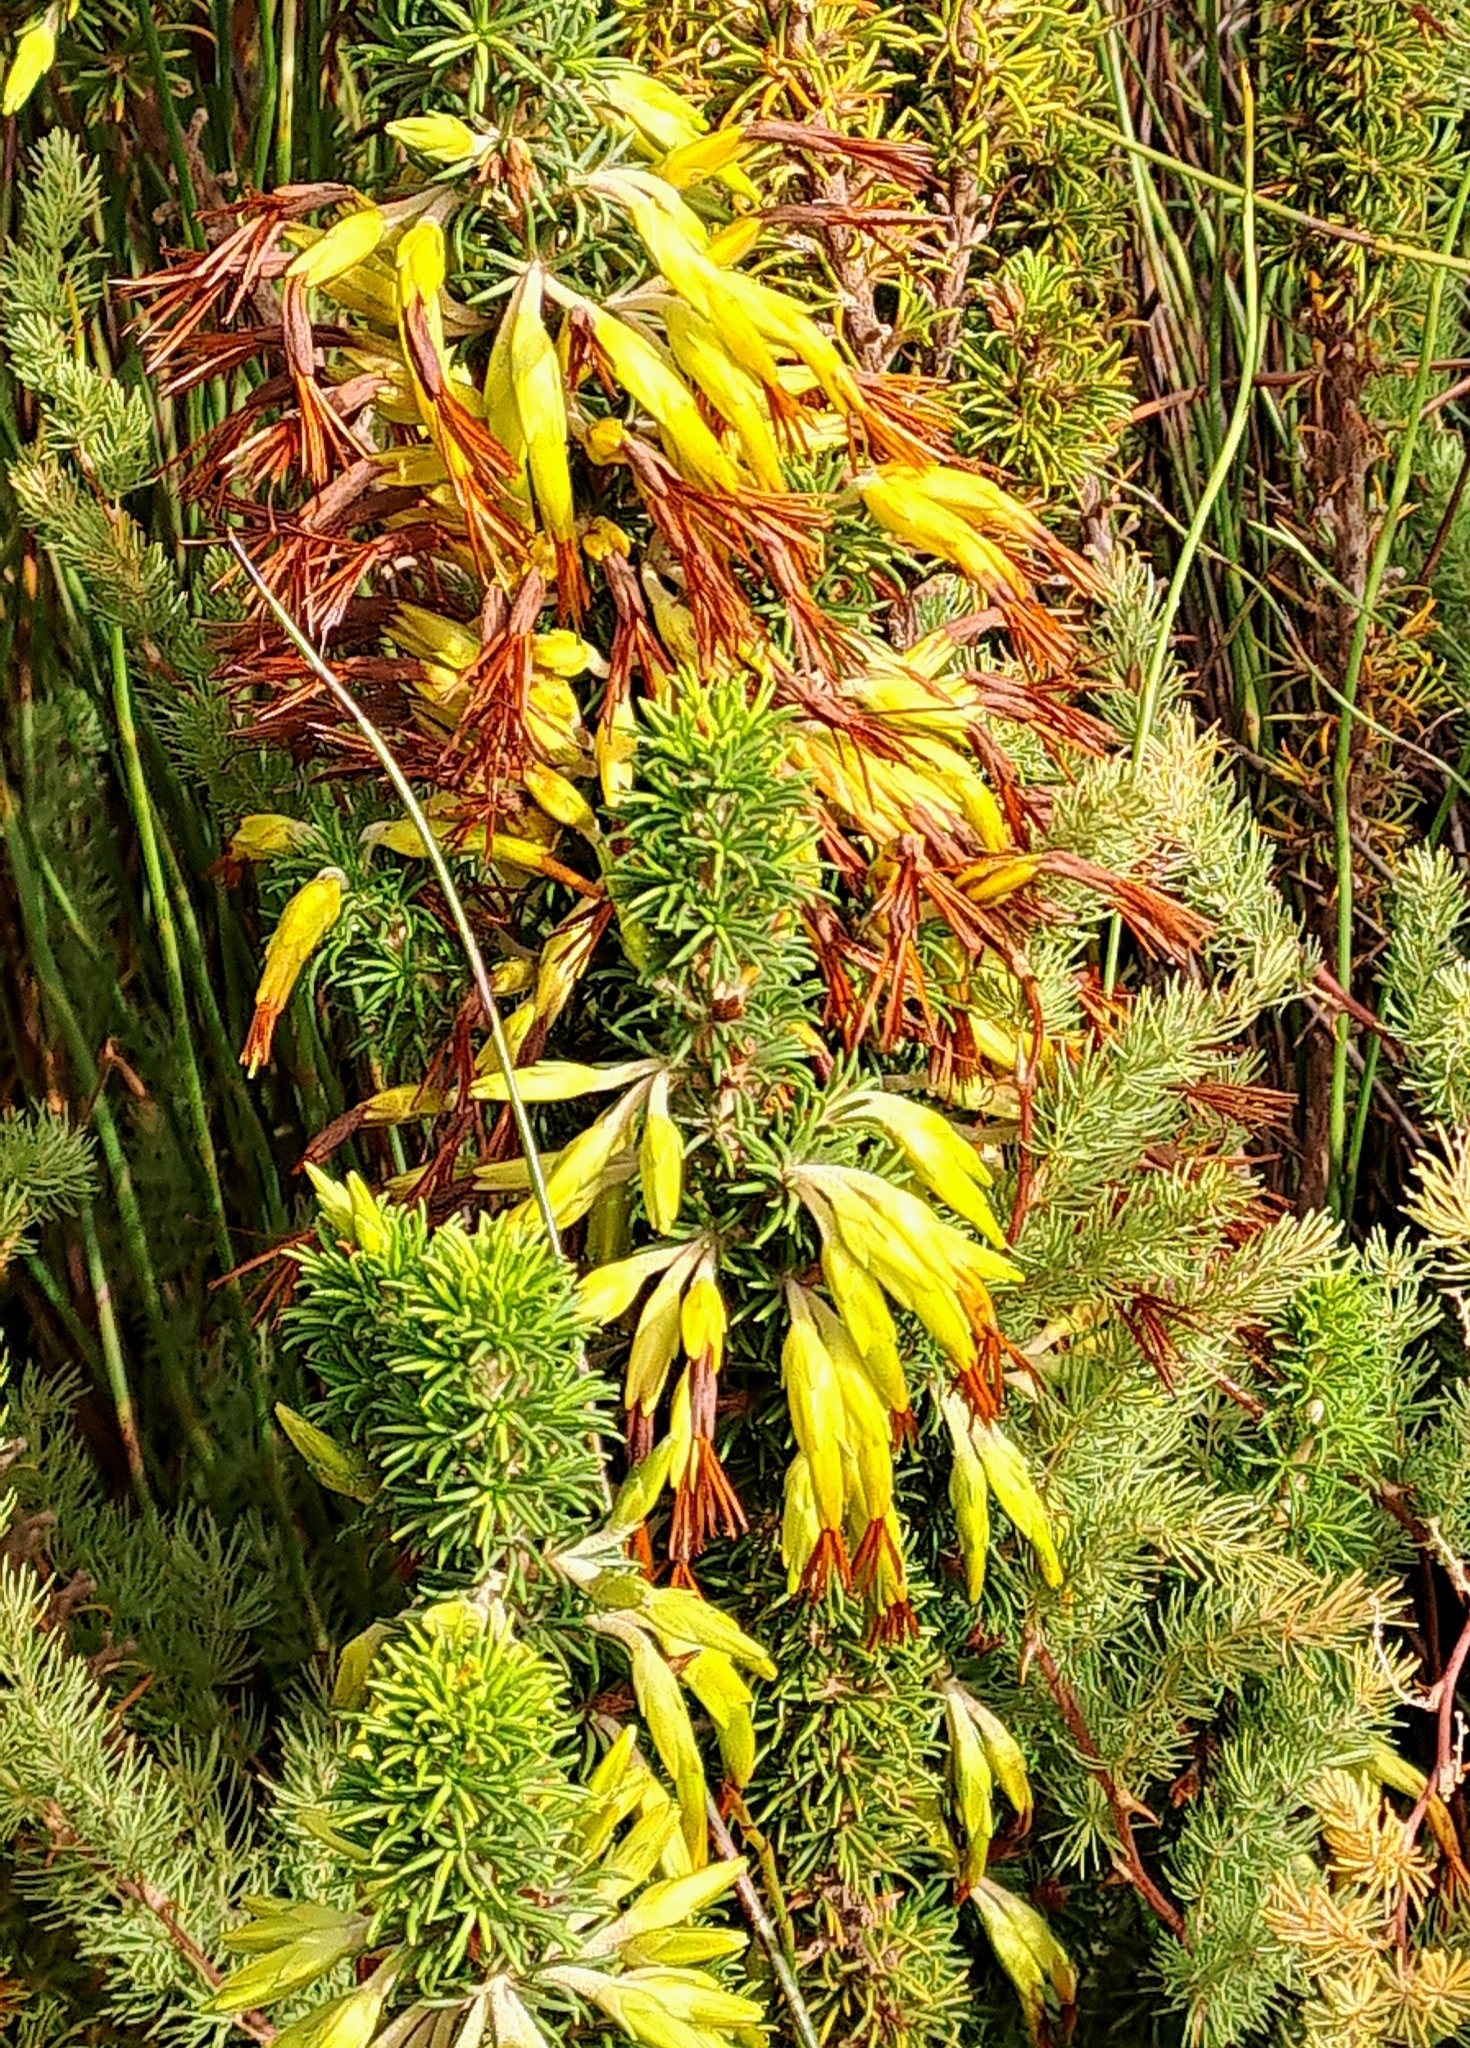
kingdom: Plantae
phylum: Tracheophyta
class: Magnoliopsida
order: Ericales
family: Ericaceae
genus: Erica
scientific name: Erica coccinea
